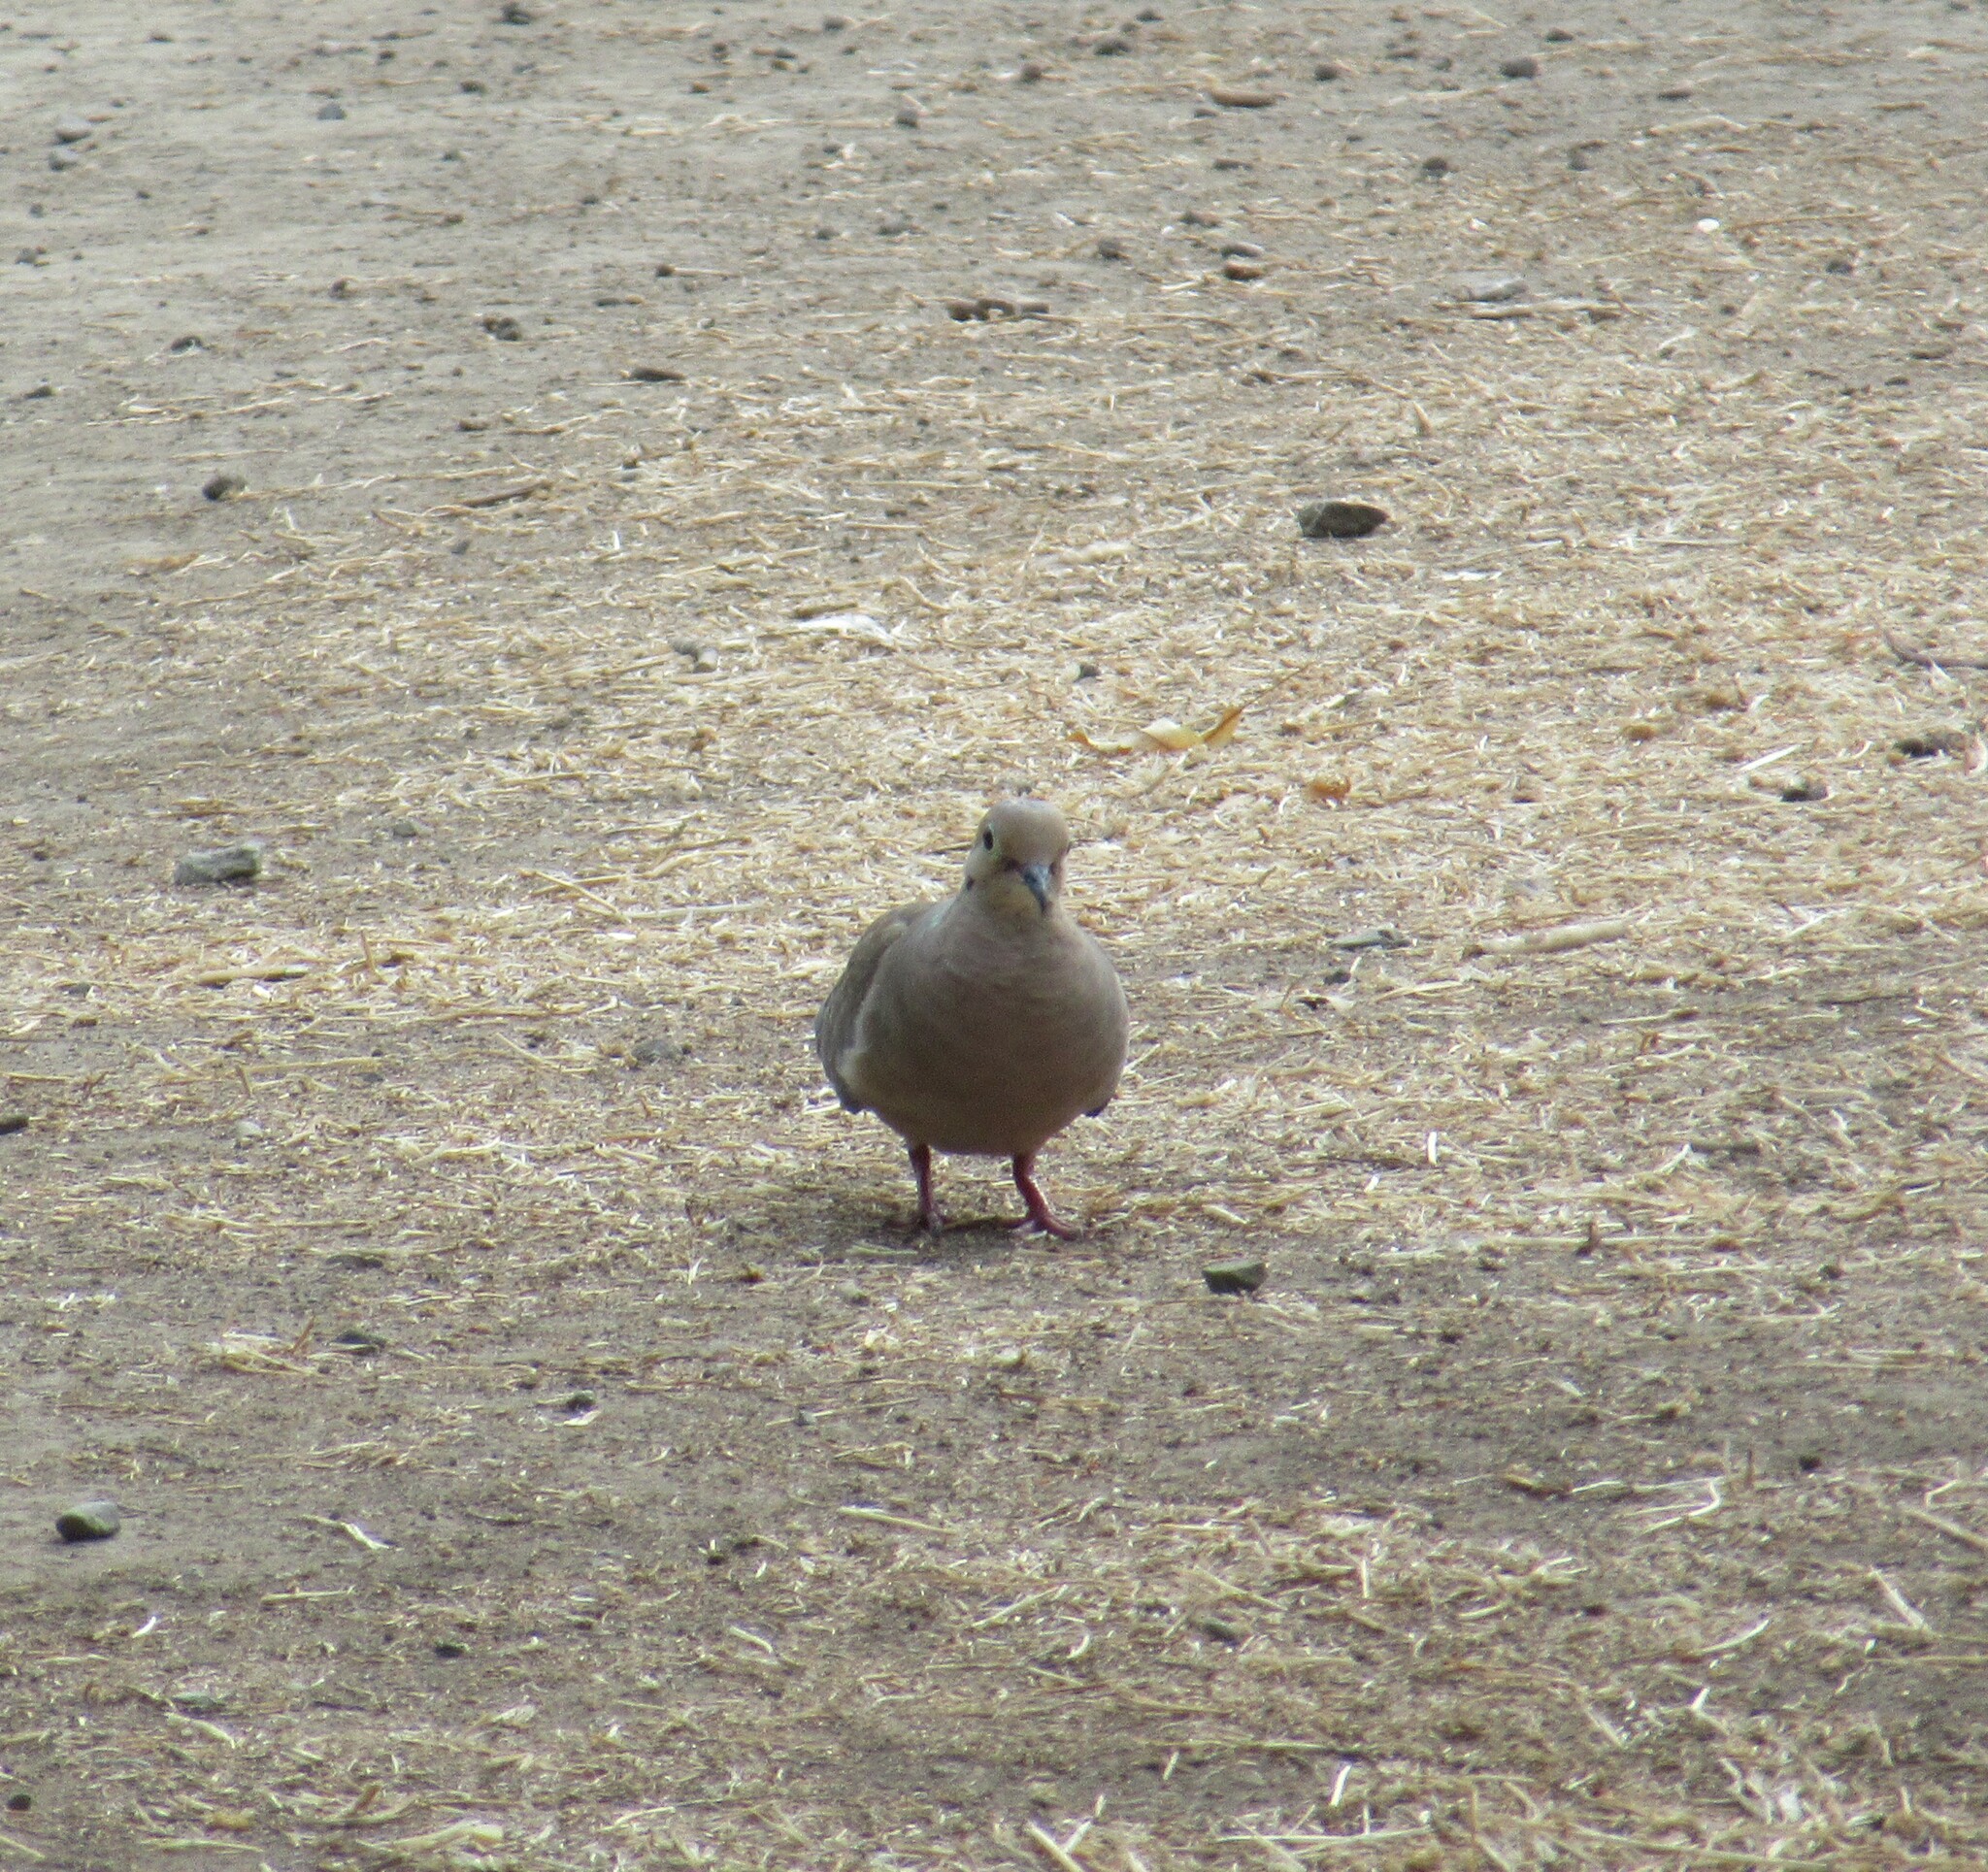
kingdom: Animalia
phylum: Chordata
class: Aves
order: Columbiformes
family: Columbidae
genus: Zenaida
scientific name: Zenaida macroura
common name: Mourning dove
